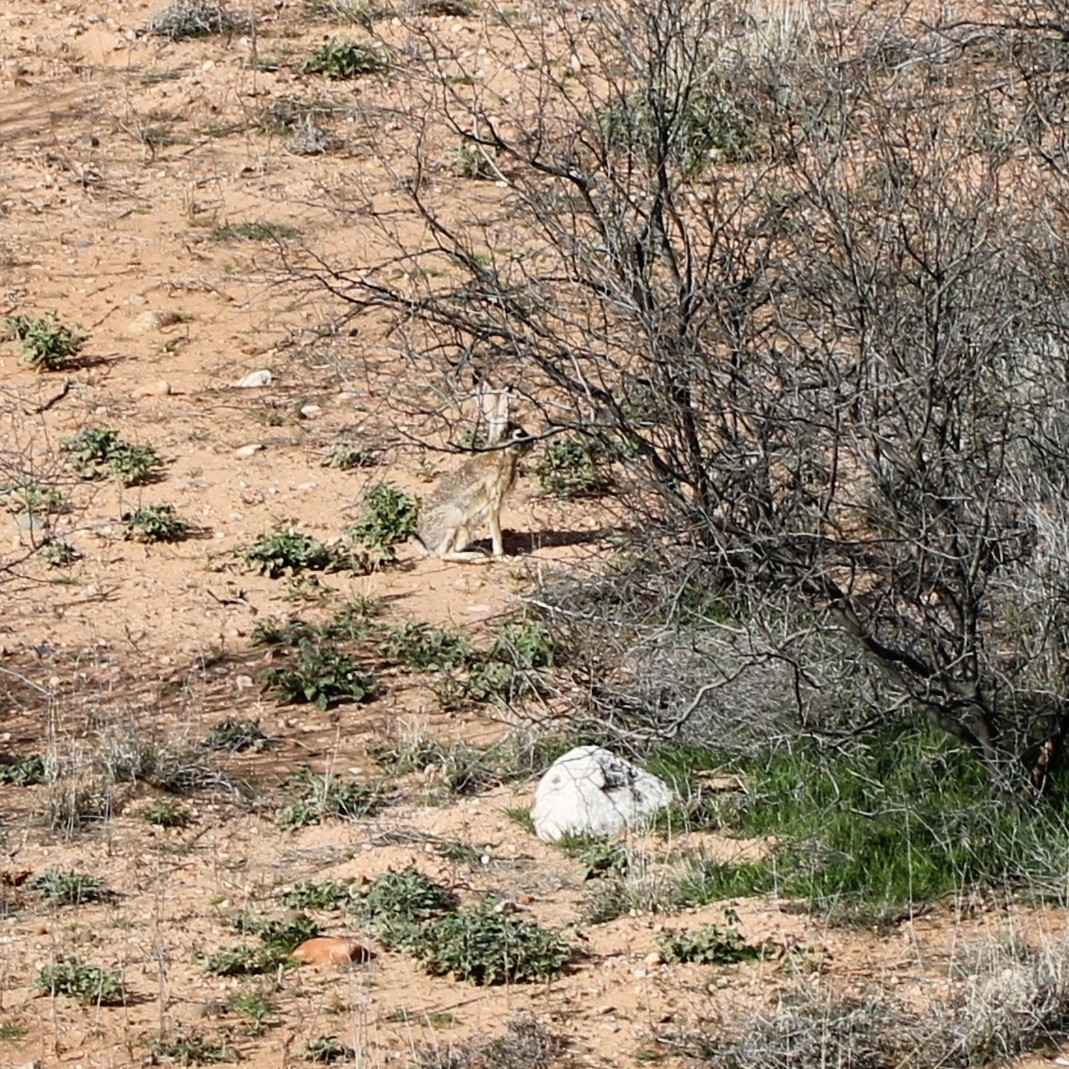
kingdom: Animalia
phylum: Chordata
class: Mammalia
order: Lagomorpha
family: Leporidae
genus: Lepus
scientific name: Lepus californicus
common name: Black-tailed jackrabbit
